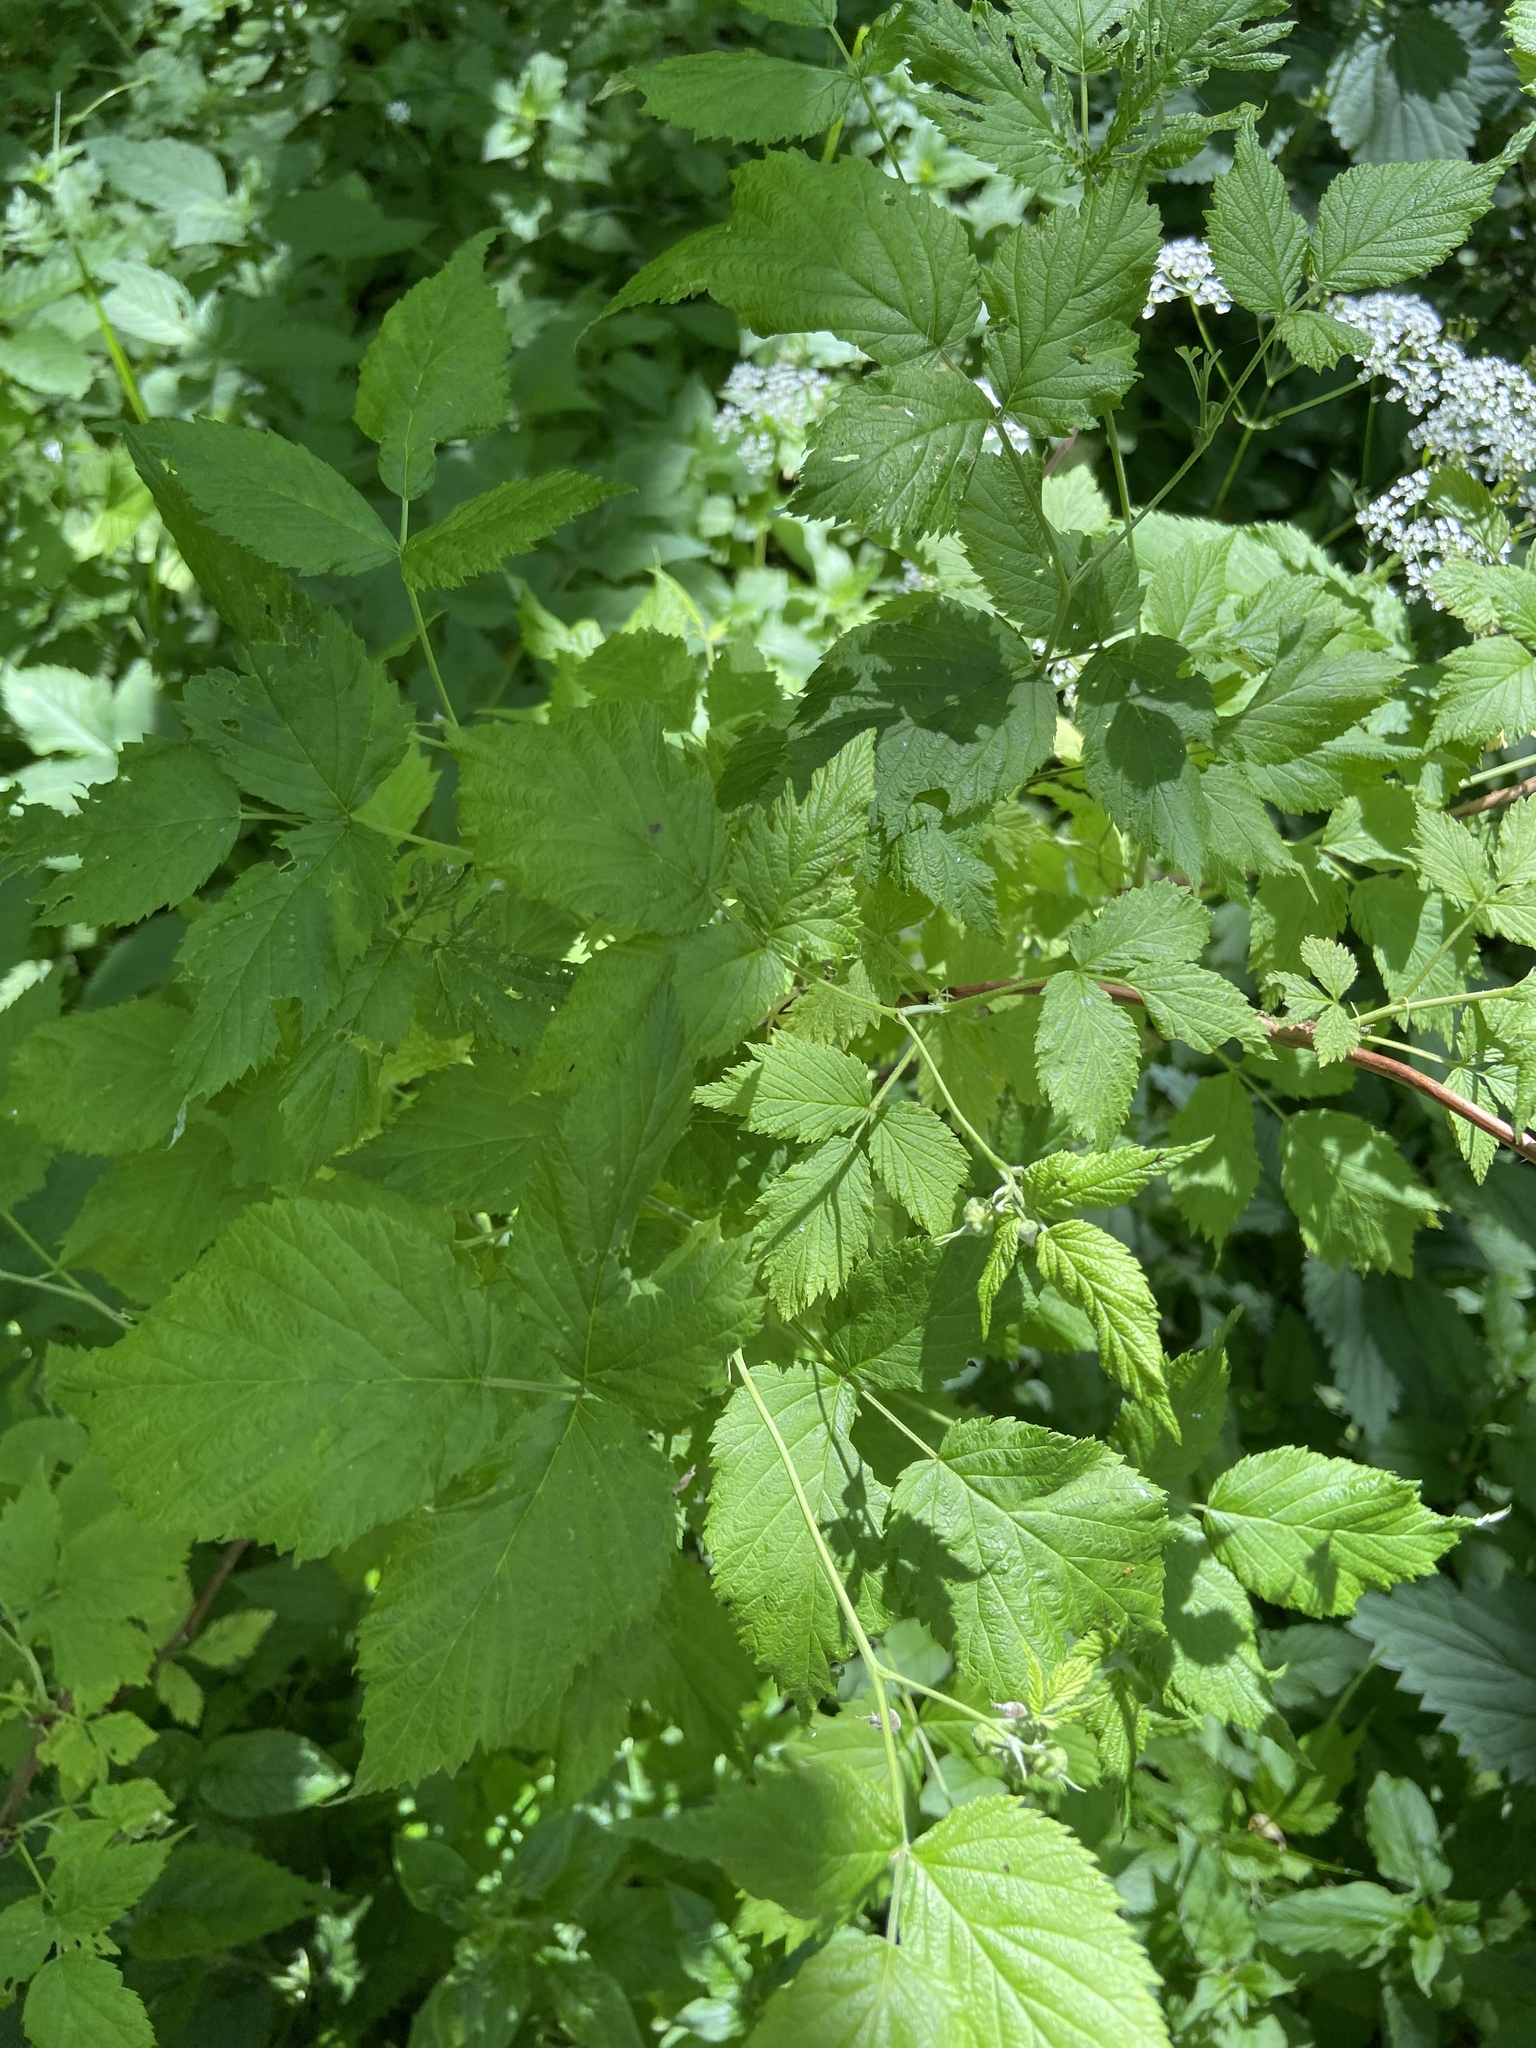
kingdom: Plantae
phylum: Tracheophyta
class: Magnoliopsida
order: Rosales
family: Rosaceae
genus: Rubus
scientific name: Rubus idaeus
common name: Raspberry
